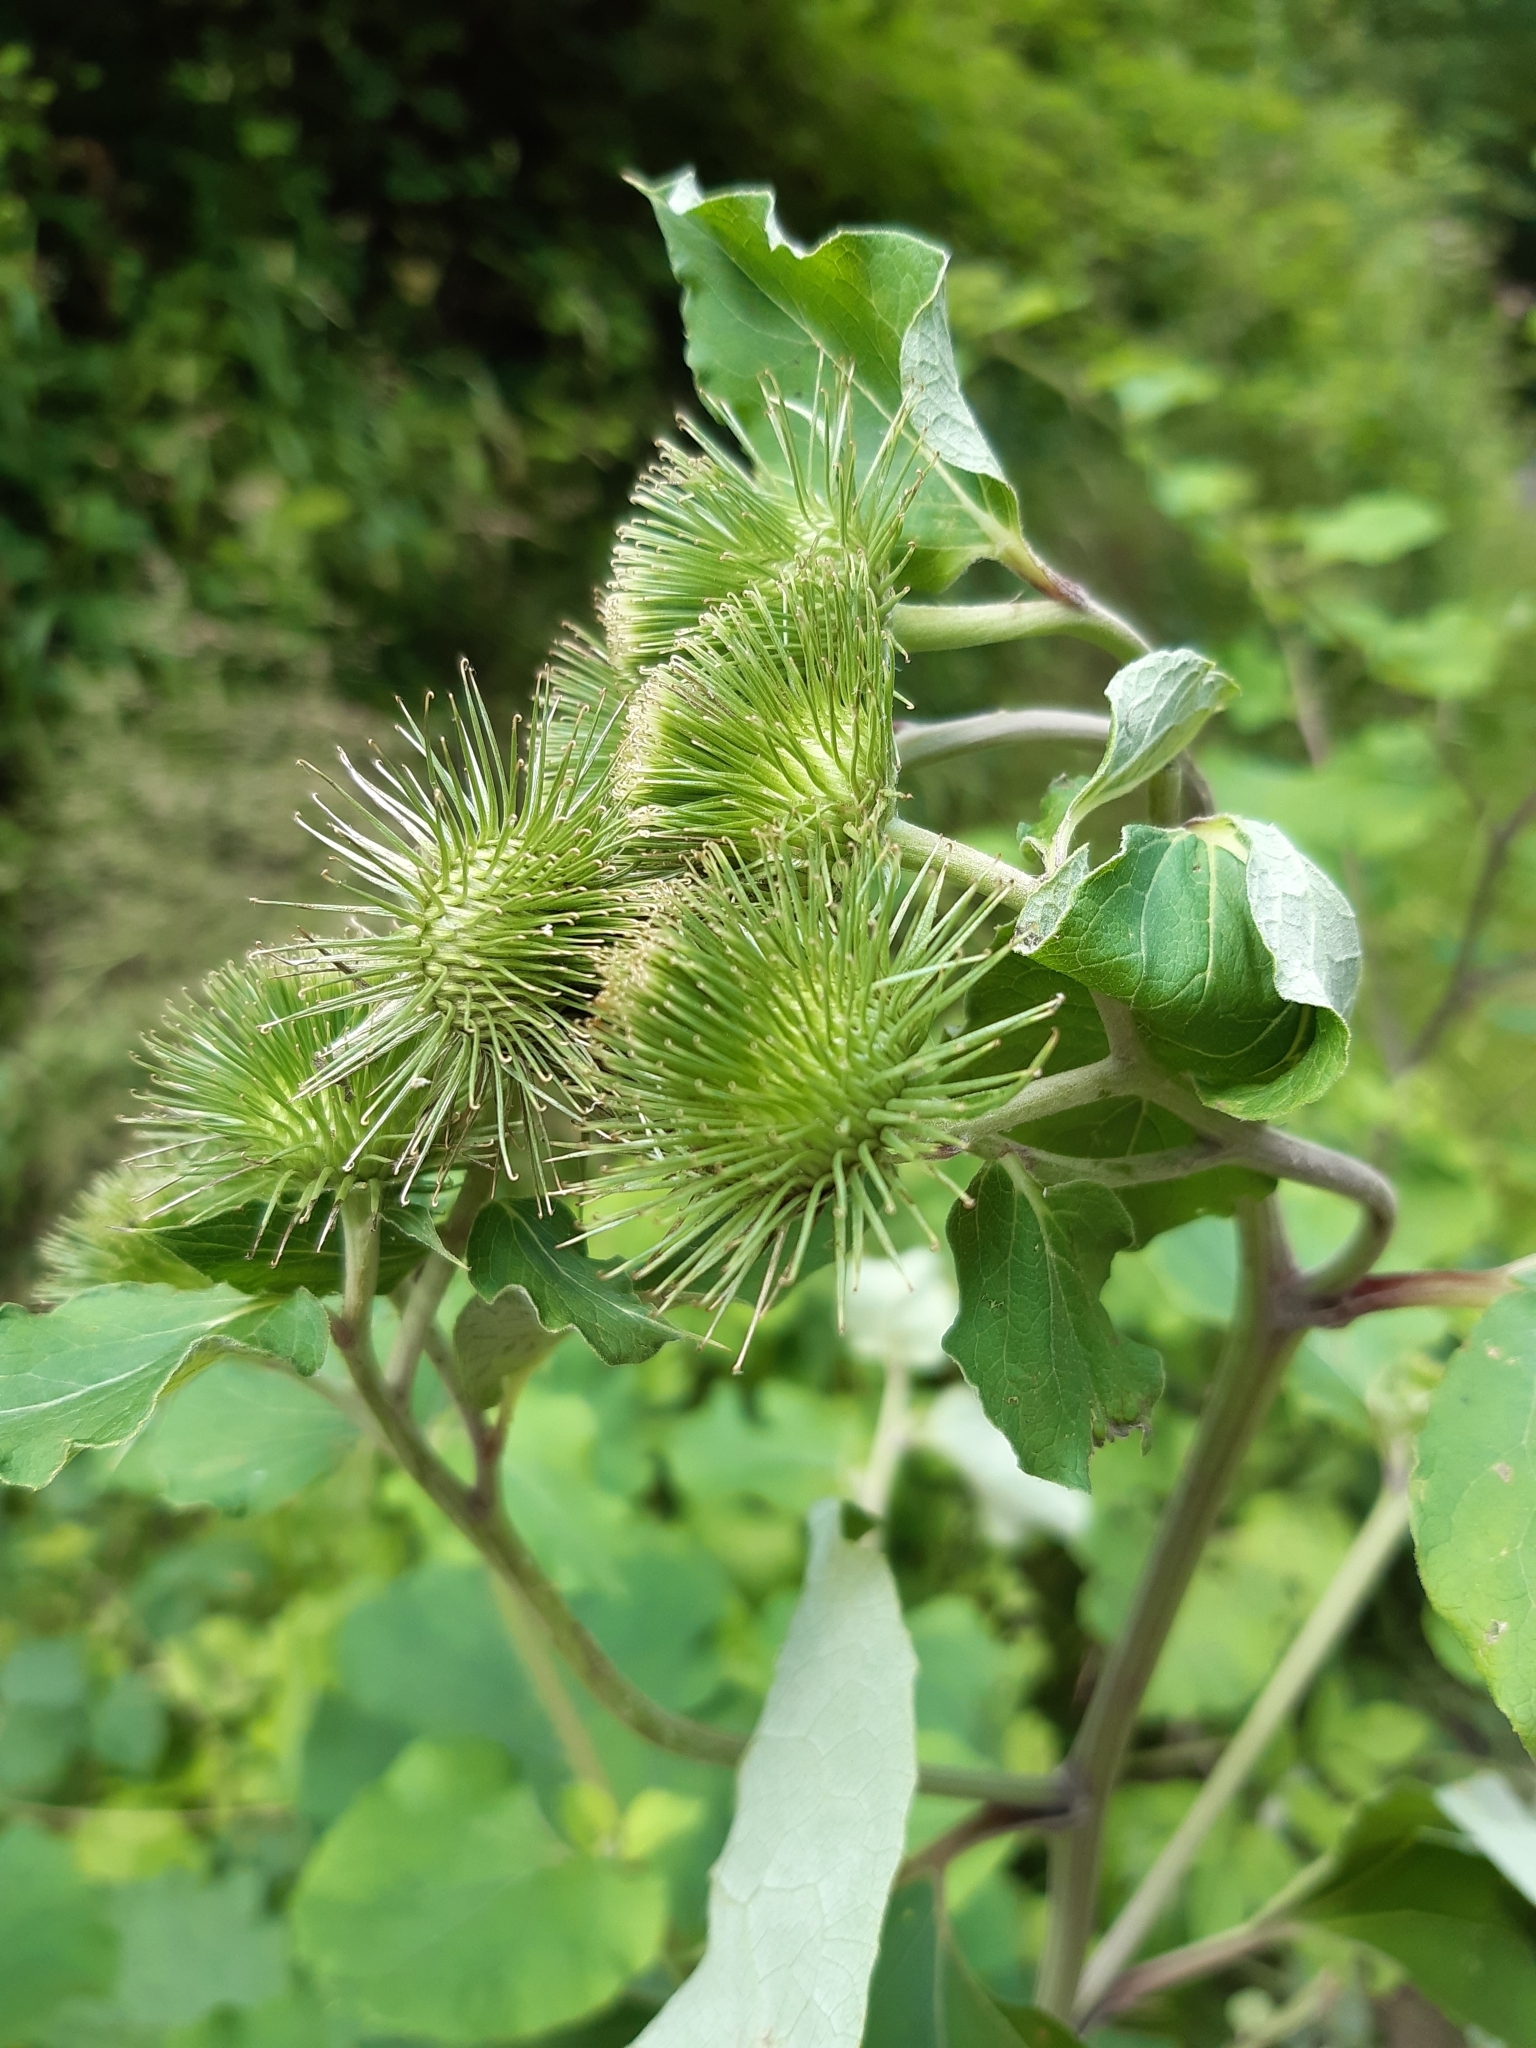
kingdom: Plantae
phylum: Tracheophyta
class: Magnoliopsida
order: Asterales
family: Asteraceae
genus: Arctium
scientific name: Arctium lappa
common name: Greater burdock
